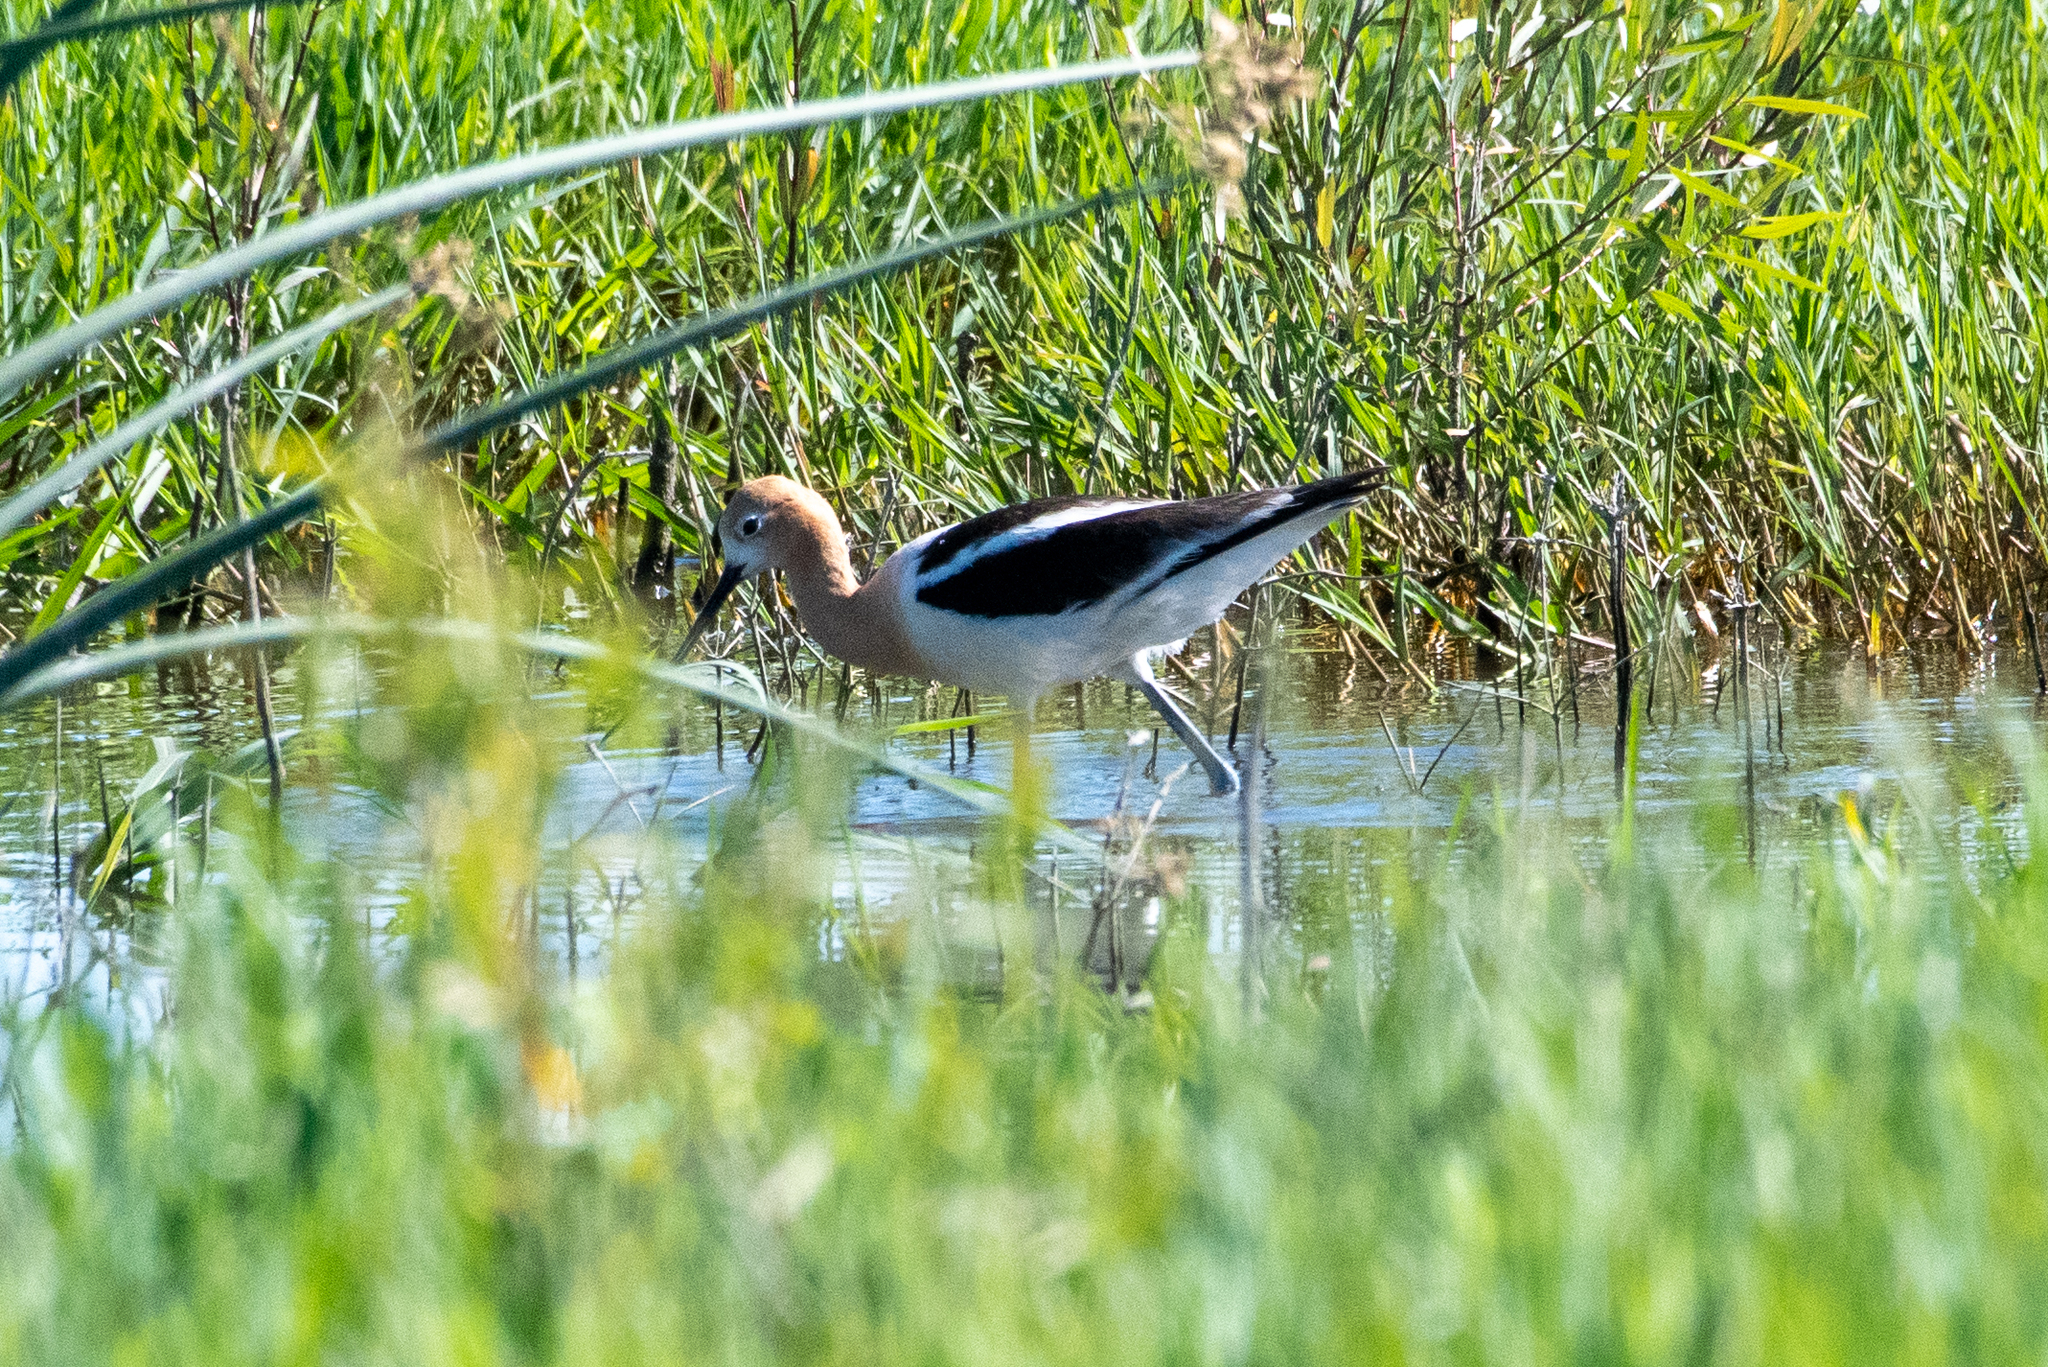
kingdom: Animalia
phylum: Chordata
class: Aves
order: Charadriiformes
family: Recurvirostridae
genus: Recurvirostra
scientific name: Recurvirostra americana
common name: American avocet
